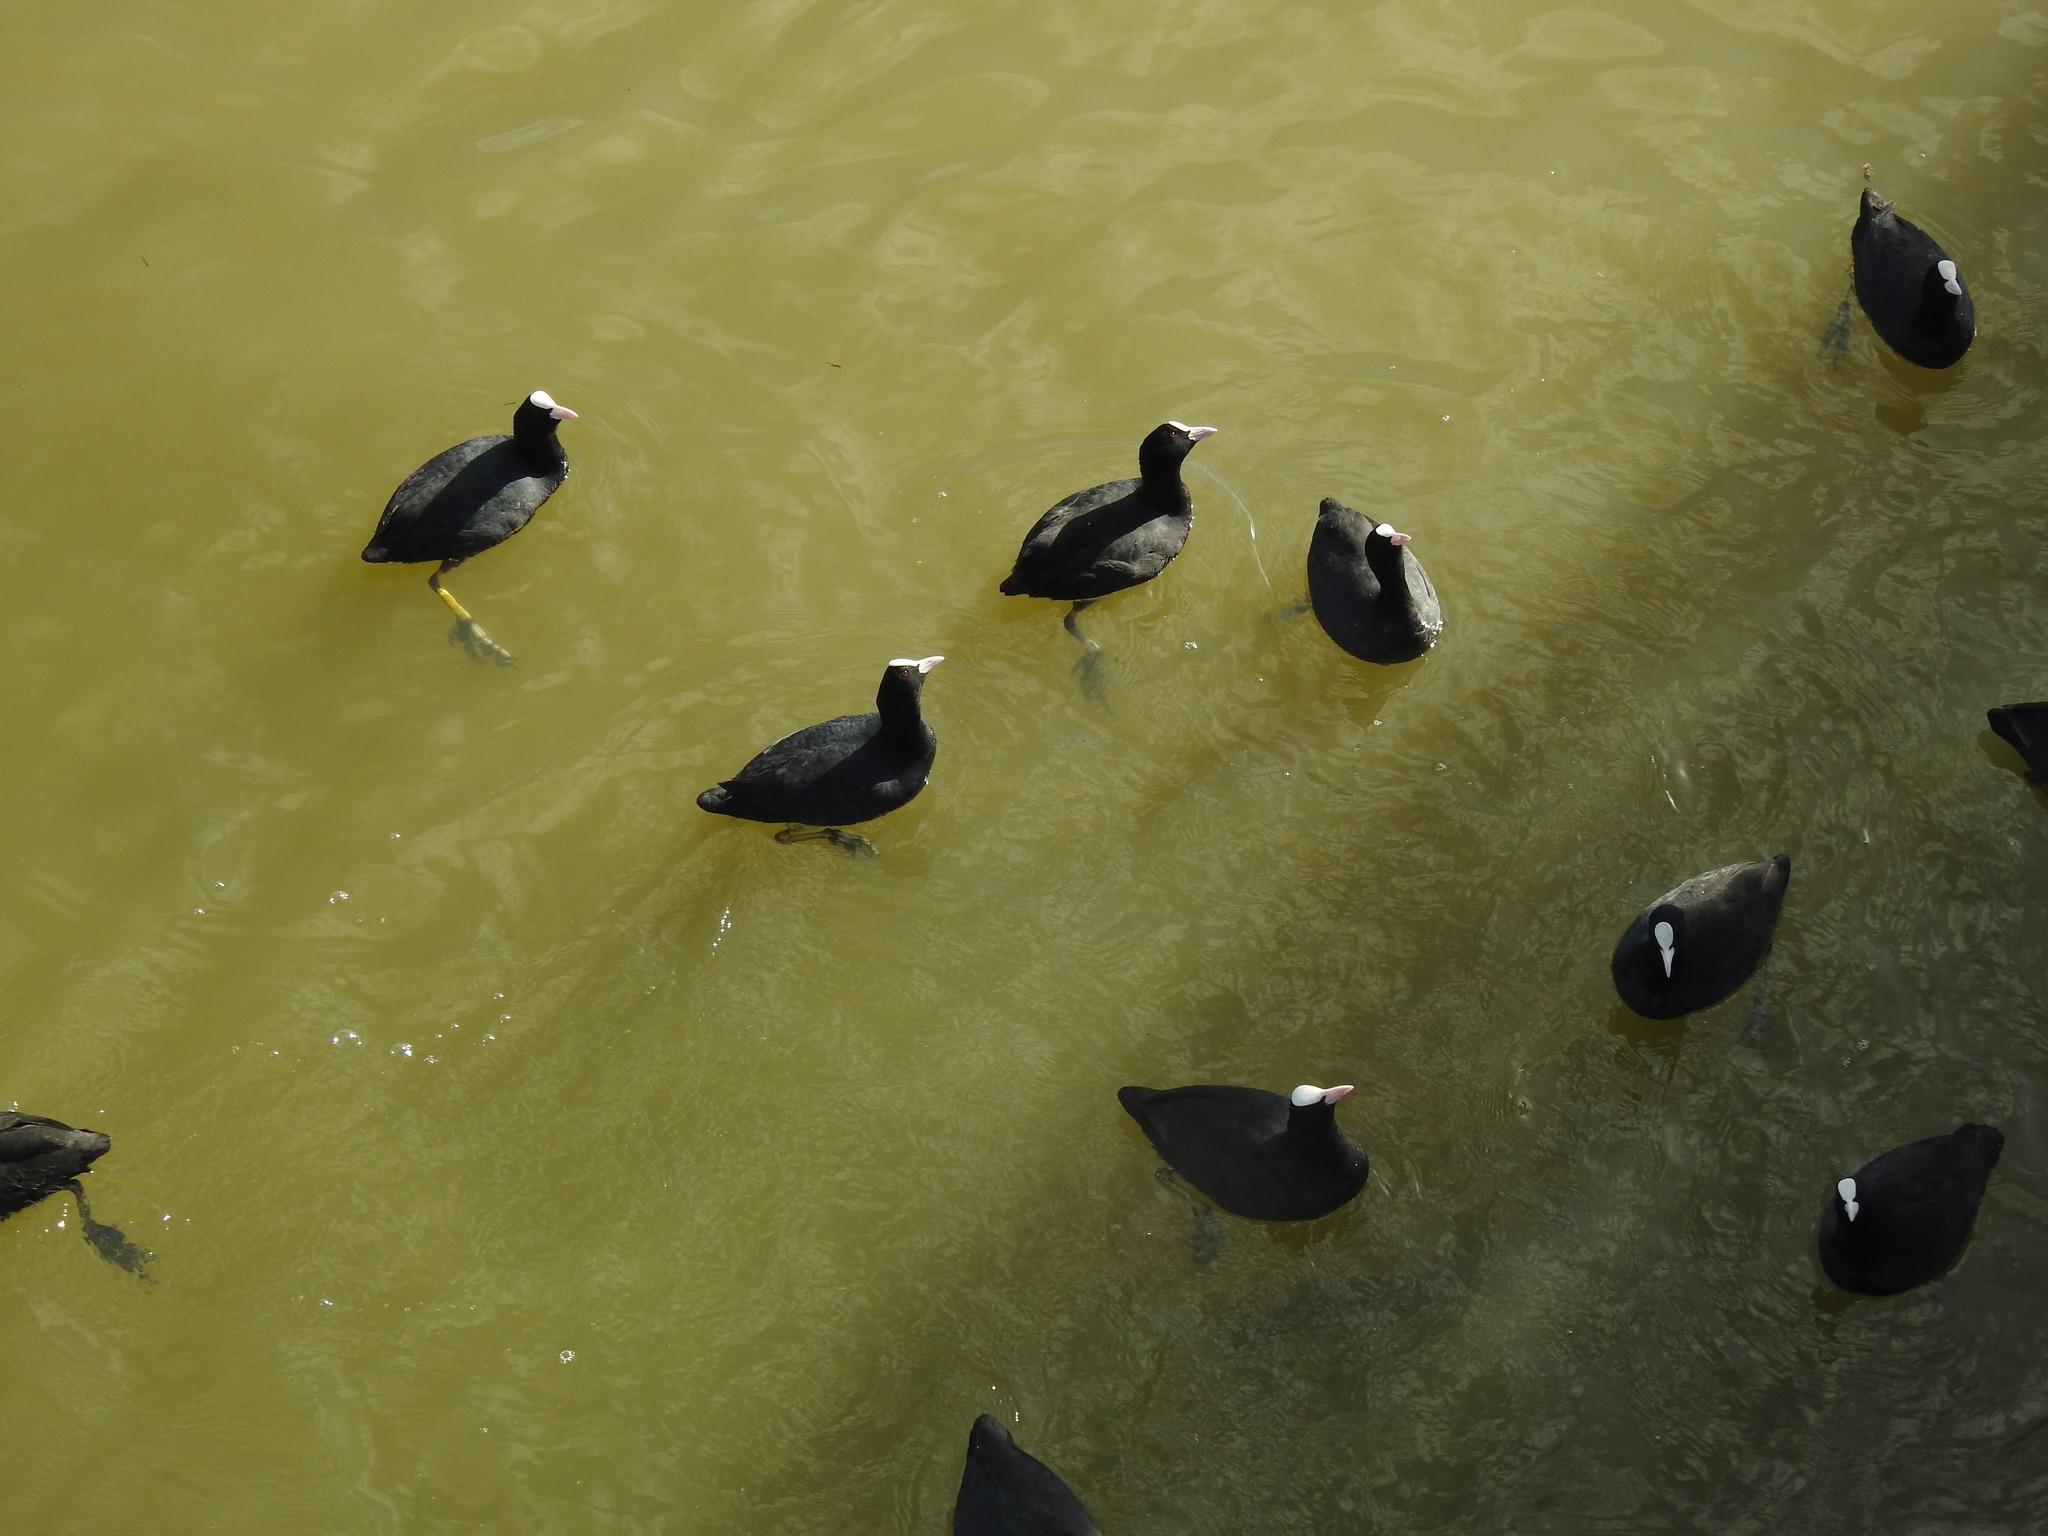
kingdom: Animalia
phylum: Chordata
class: Aves
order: Gruiformes
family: Rallidae
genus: Fulica
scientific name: Fulica atra
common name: Eurasian coot
